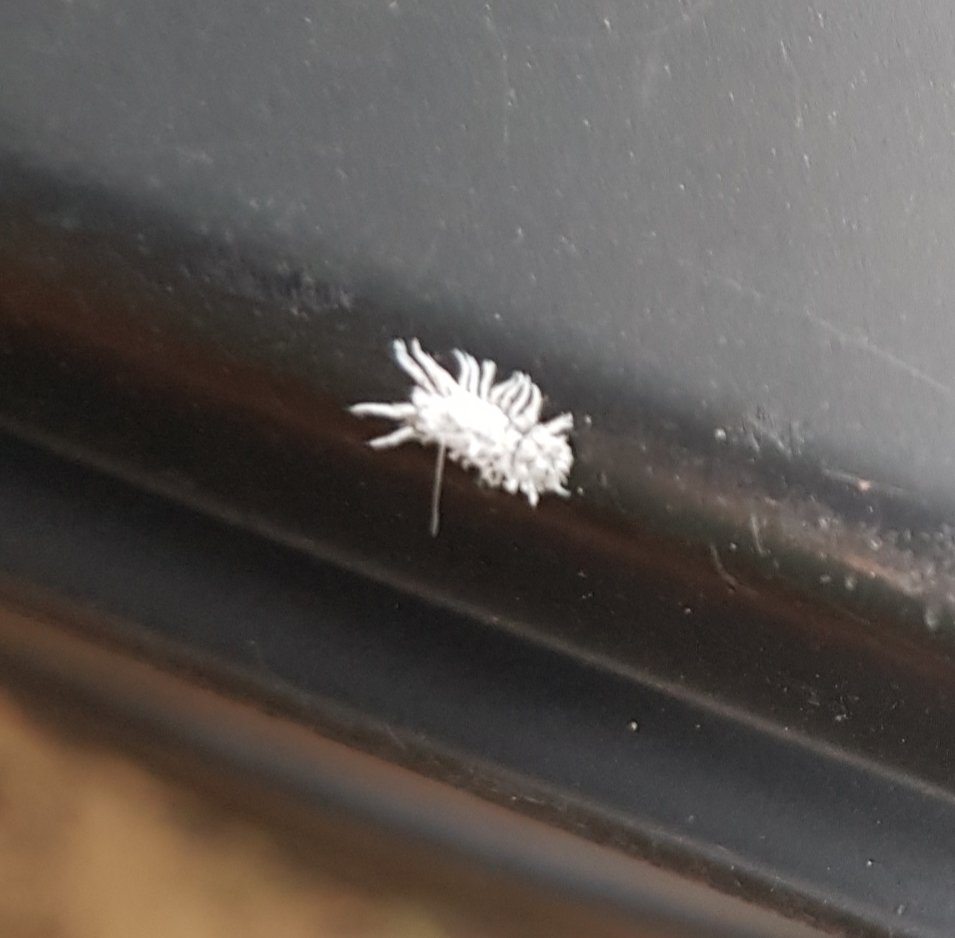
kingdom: Animalia
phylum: Arthropoda
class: Insecta
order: Coleoptera
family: Coccinellidae
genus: Cryptolaemus
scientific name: Cryptolaemus montrouzieri
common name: Mealybug destroyer
